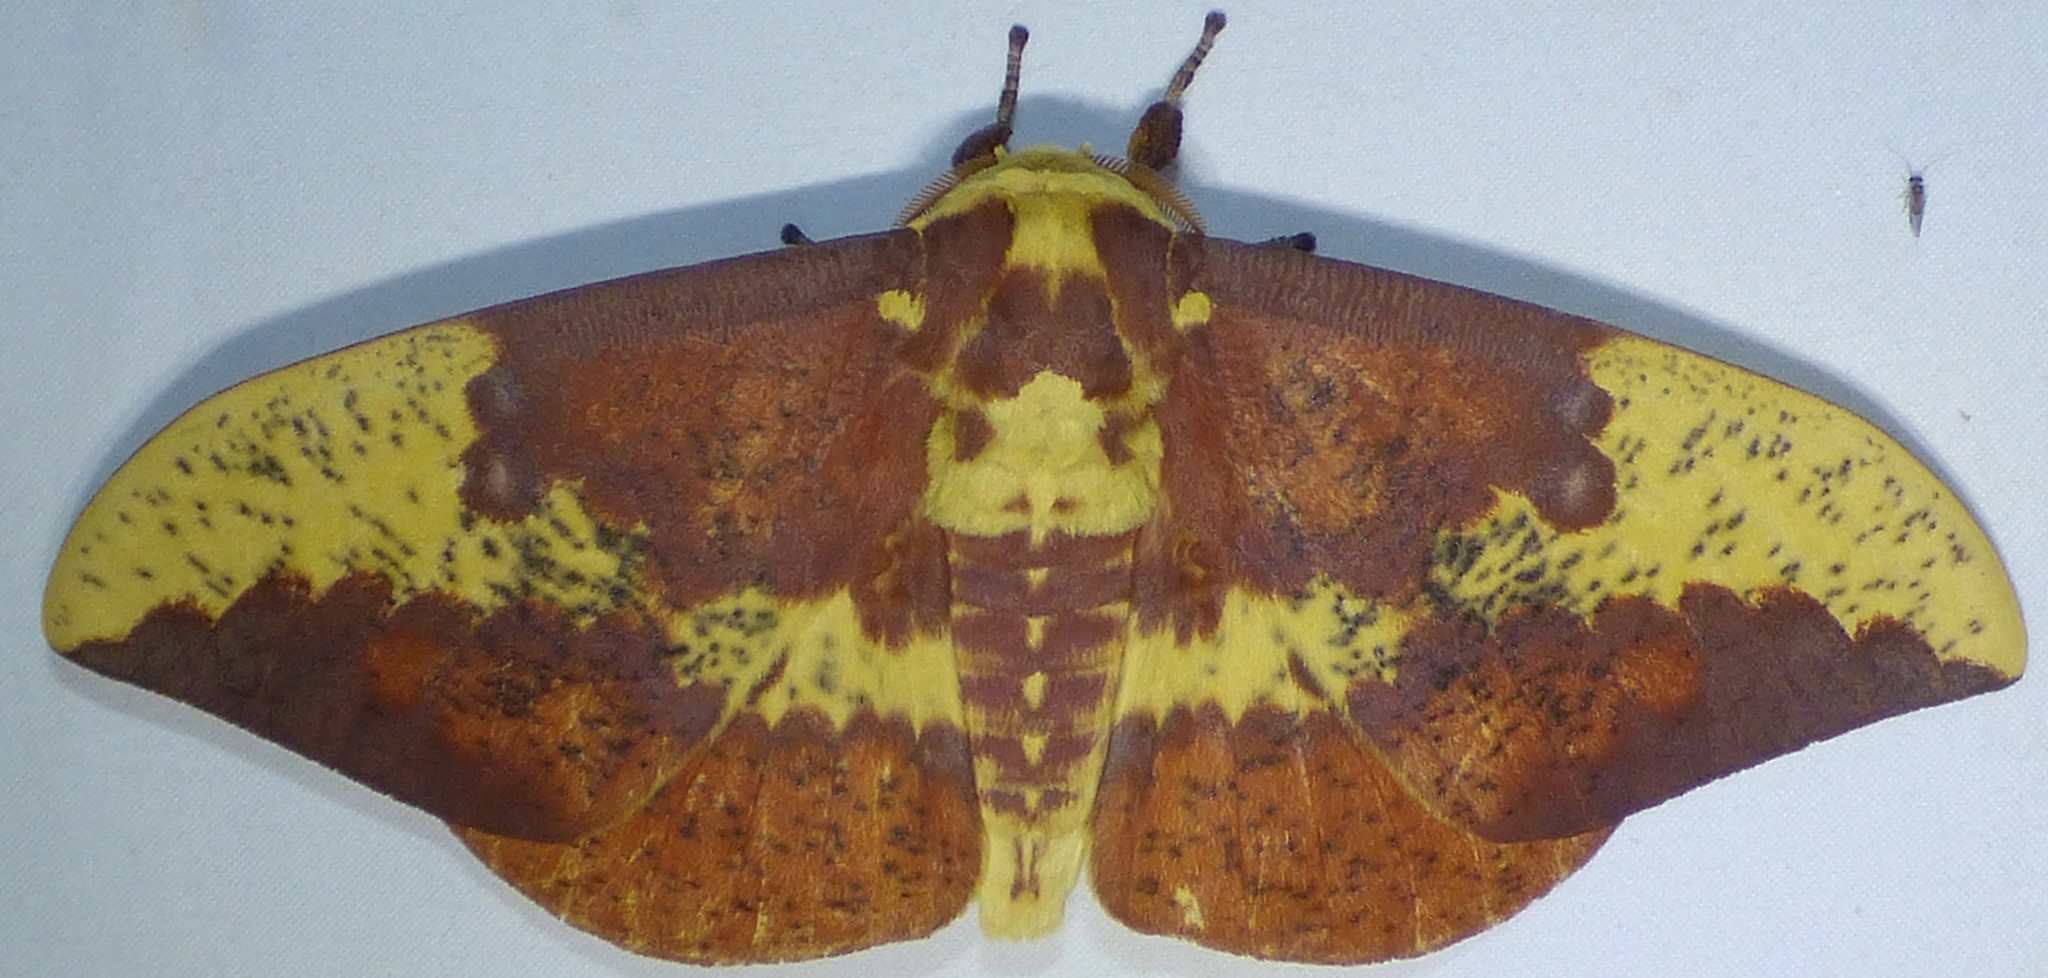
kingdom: Animalia
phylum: Arthropoda
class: Insecta
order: Lepidoptera
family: Saturniidae
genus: Eacles
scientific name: Eacles imperialis
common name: Imperial moth
